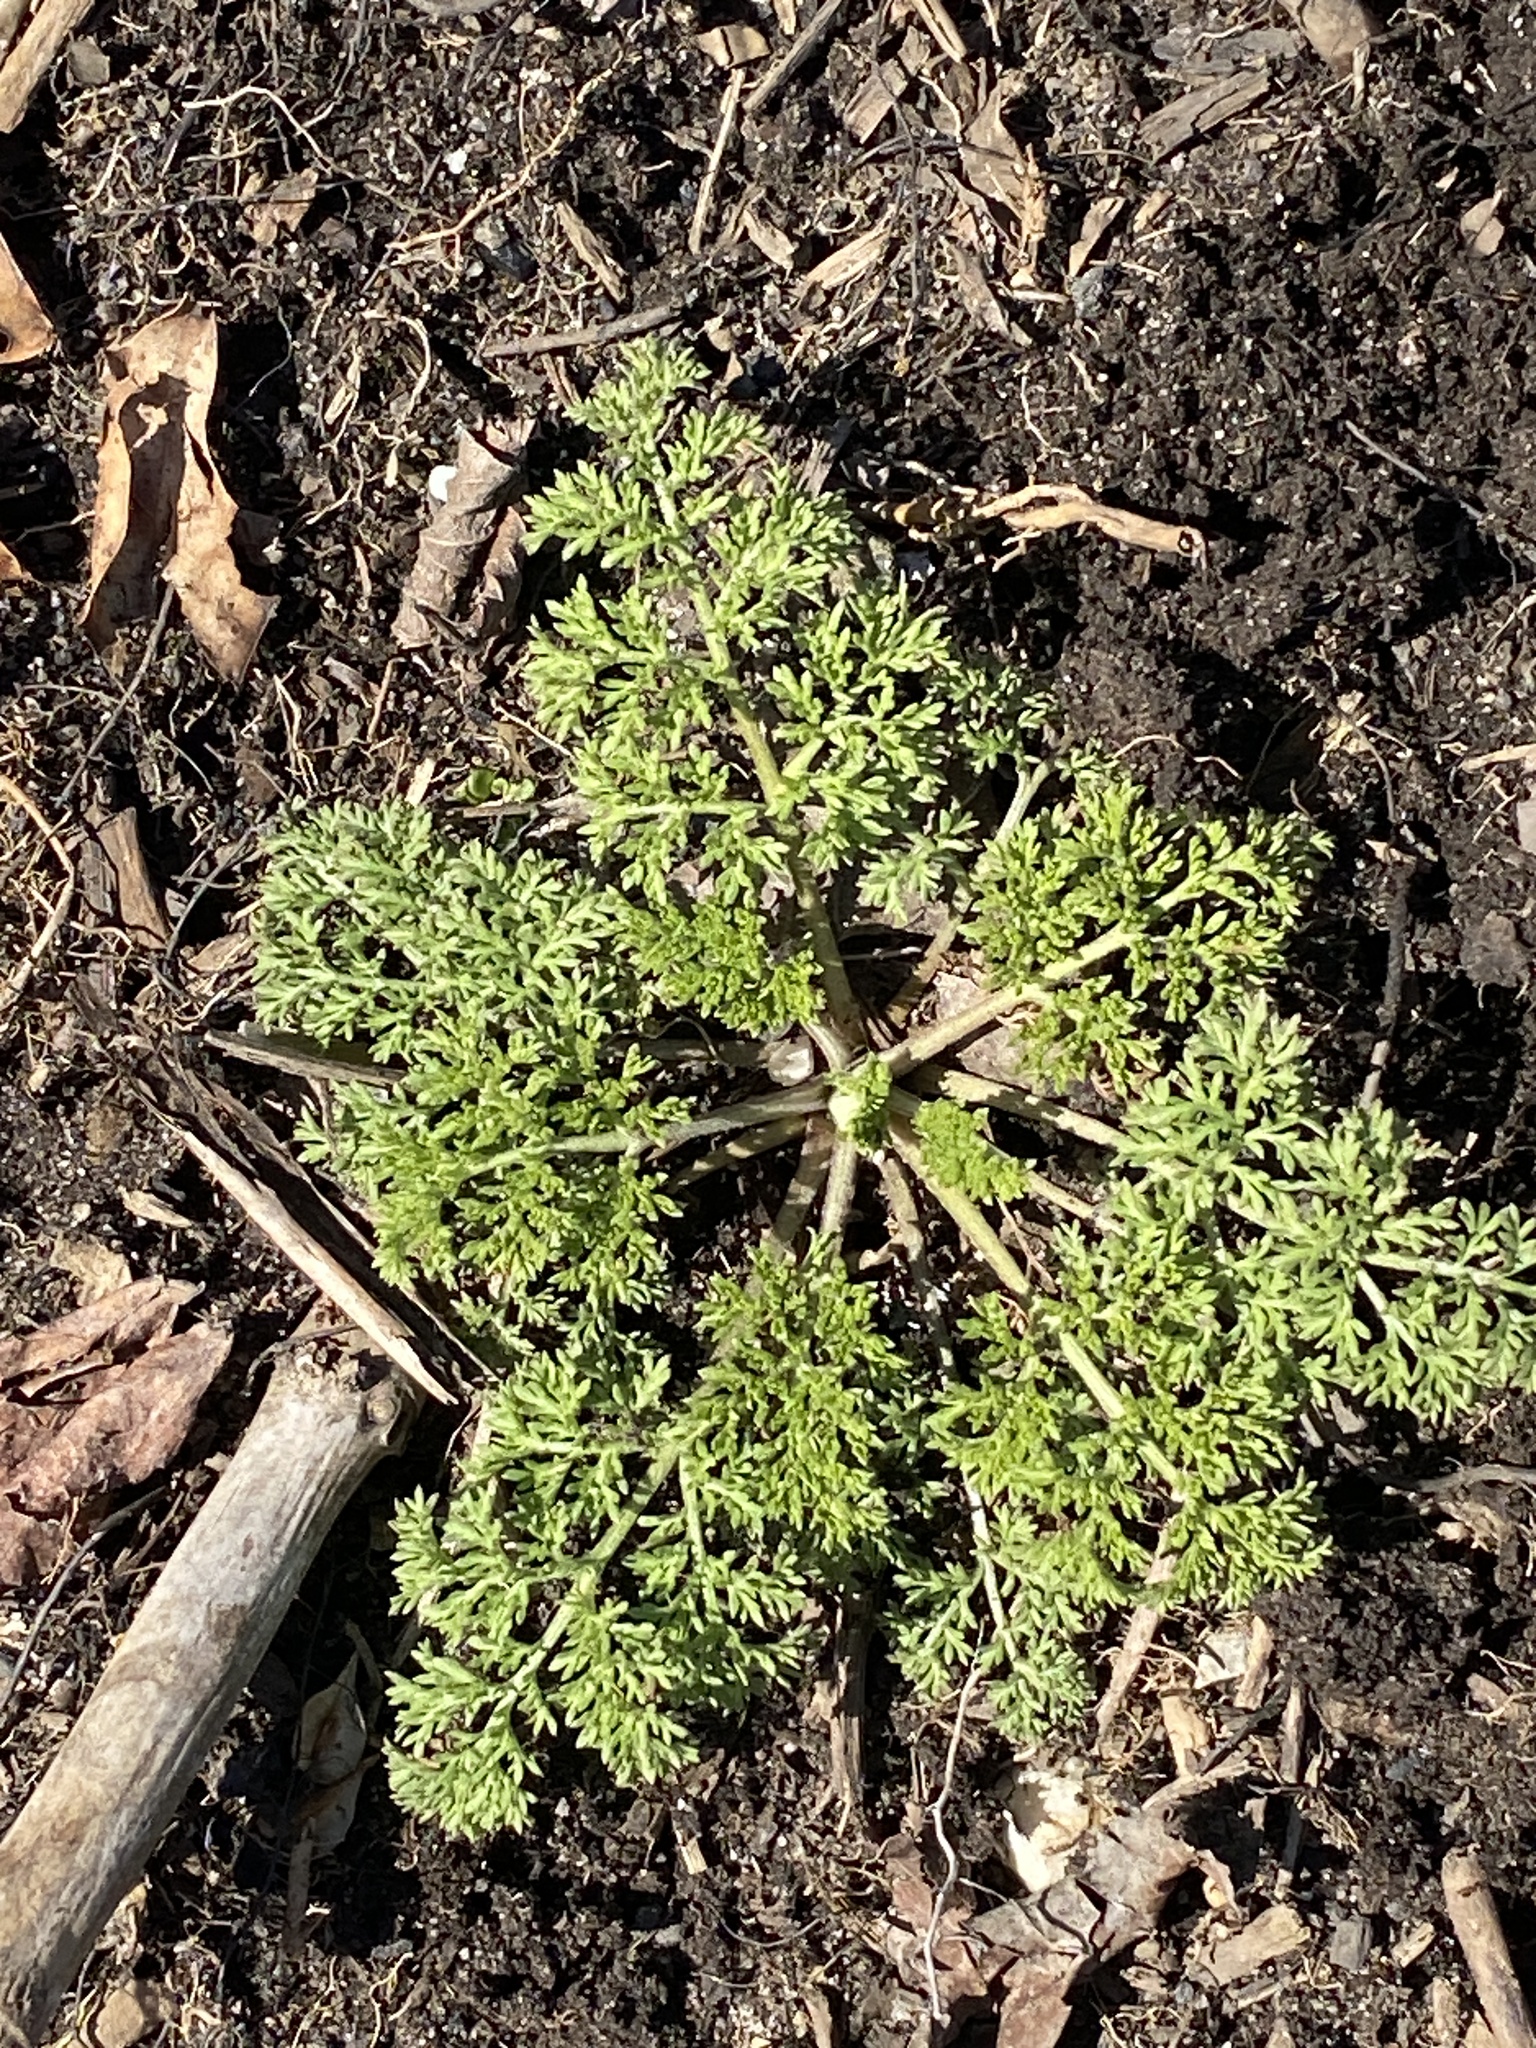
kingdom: Plantae
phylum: Tracheophyta
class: Magnoliopsida
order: Apiales
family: Apiaceae
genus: Daucus
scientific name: Daucus carota
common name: Wild carrot
